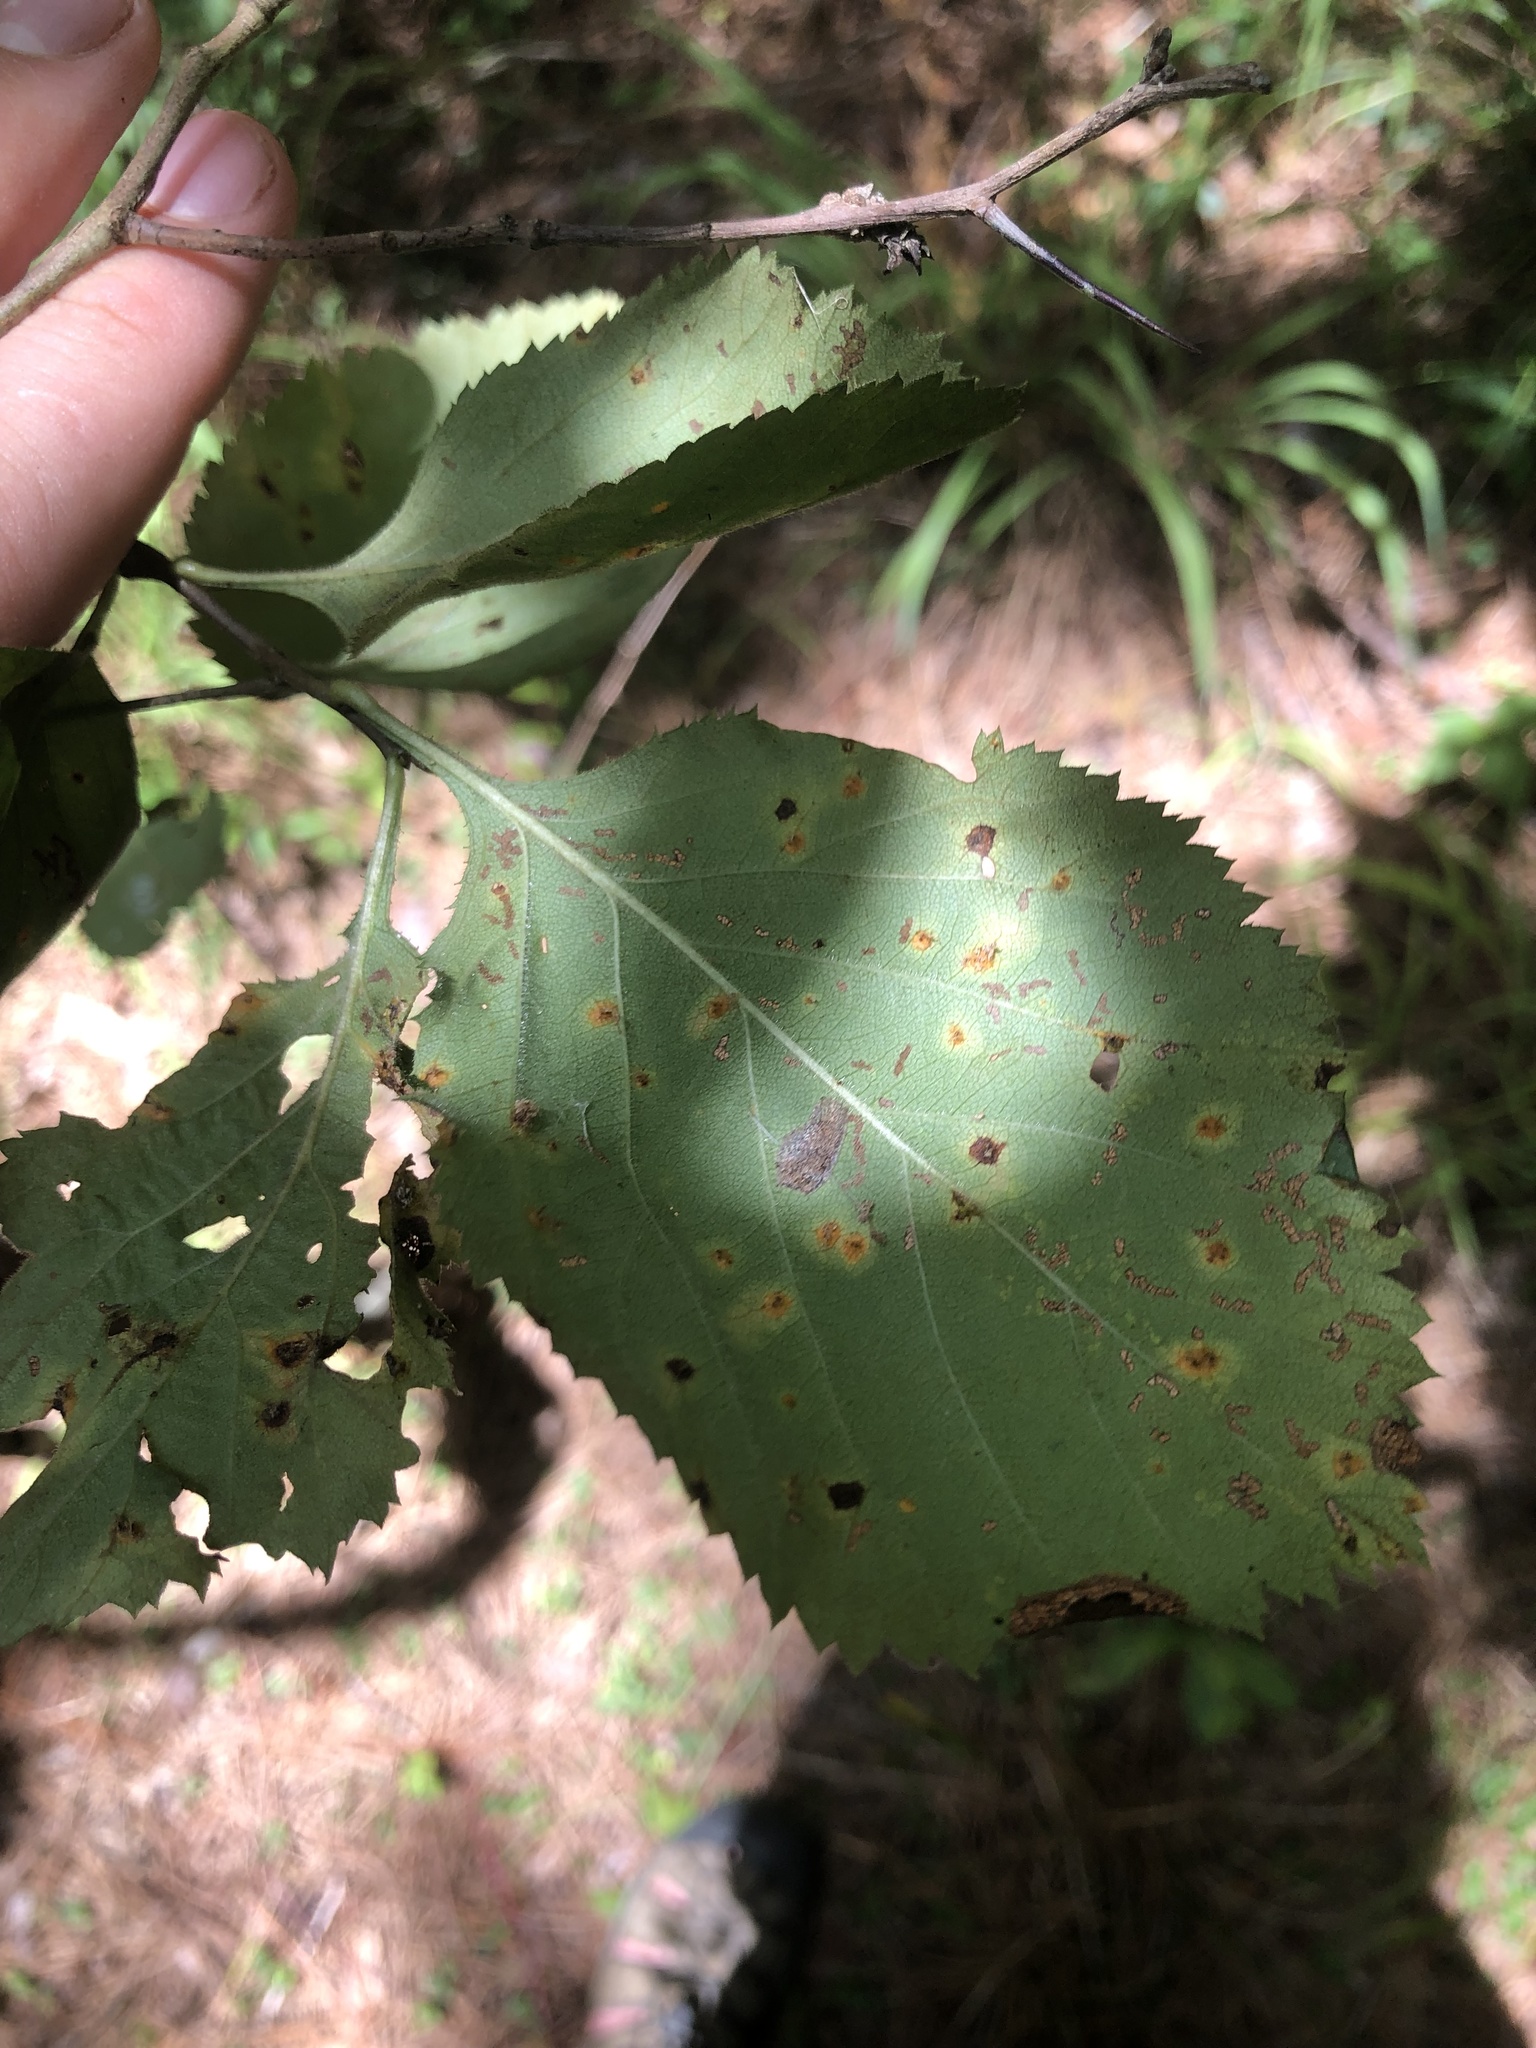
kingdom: Plantae
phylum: Tracheophyta
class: Magnoliopsida
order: Rosales
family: Rosaceae
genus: Crataegus
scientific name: Crataegus ashei
